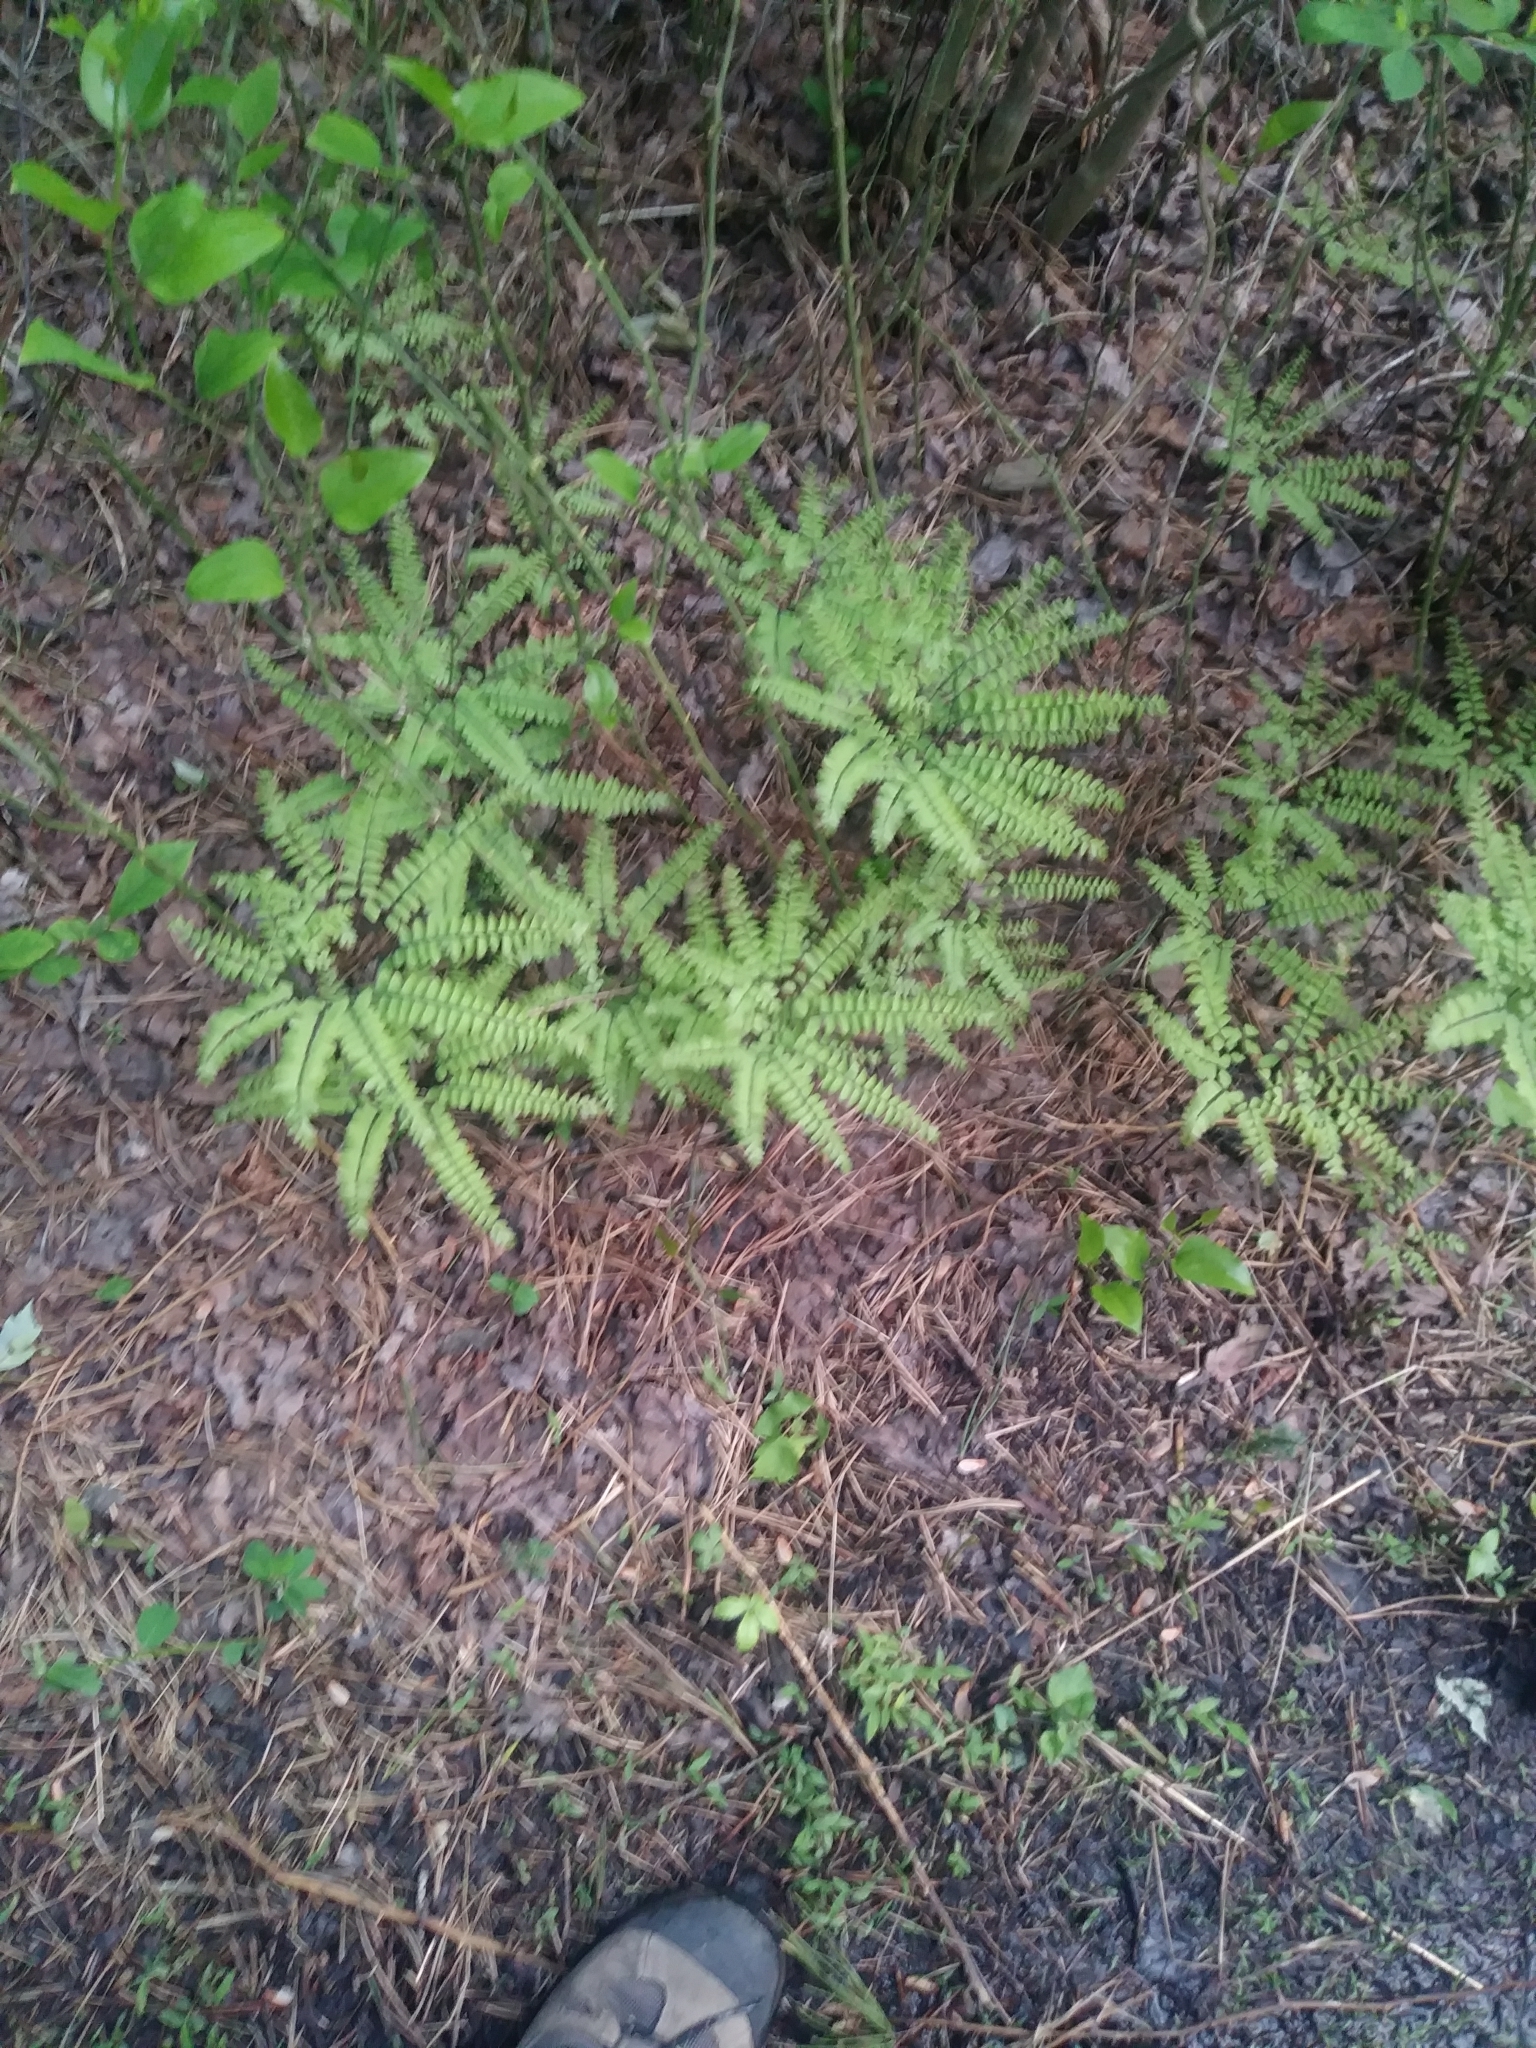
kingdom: Plantae
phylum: Tracheophyta
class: Polypodiopsida
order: Polypodiales
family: Pteridaceae
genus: Adiantum
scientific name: Adiantum pedatum
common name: Five-finger fern
